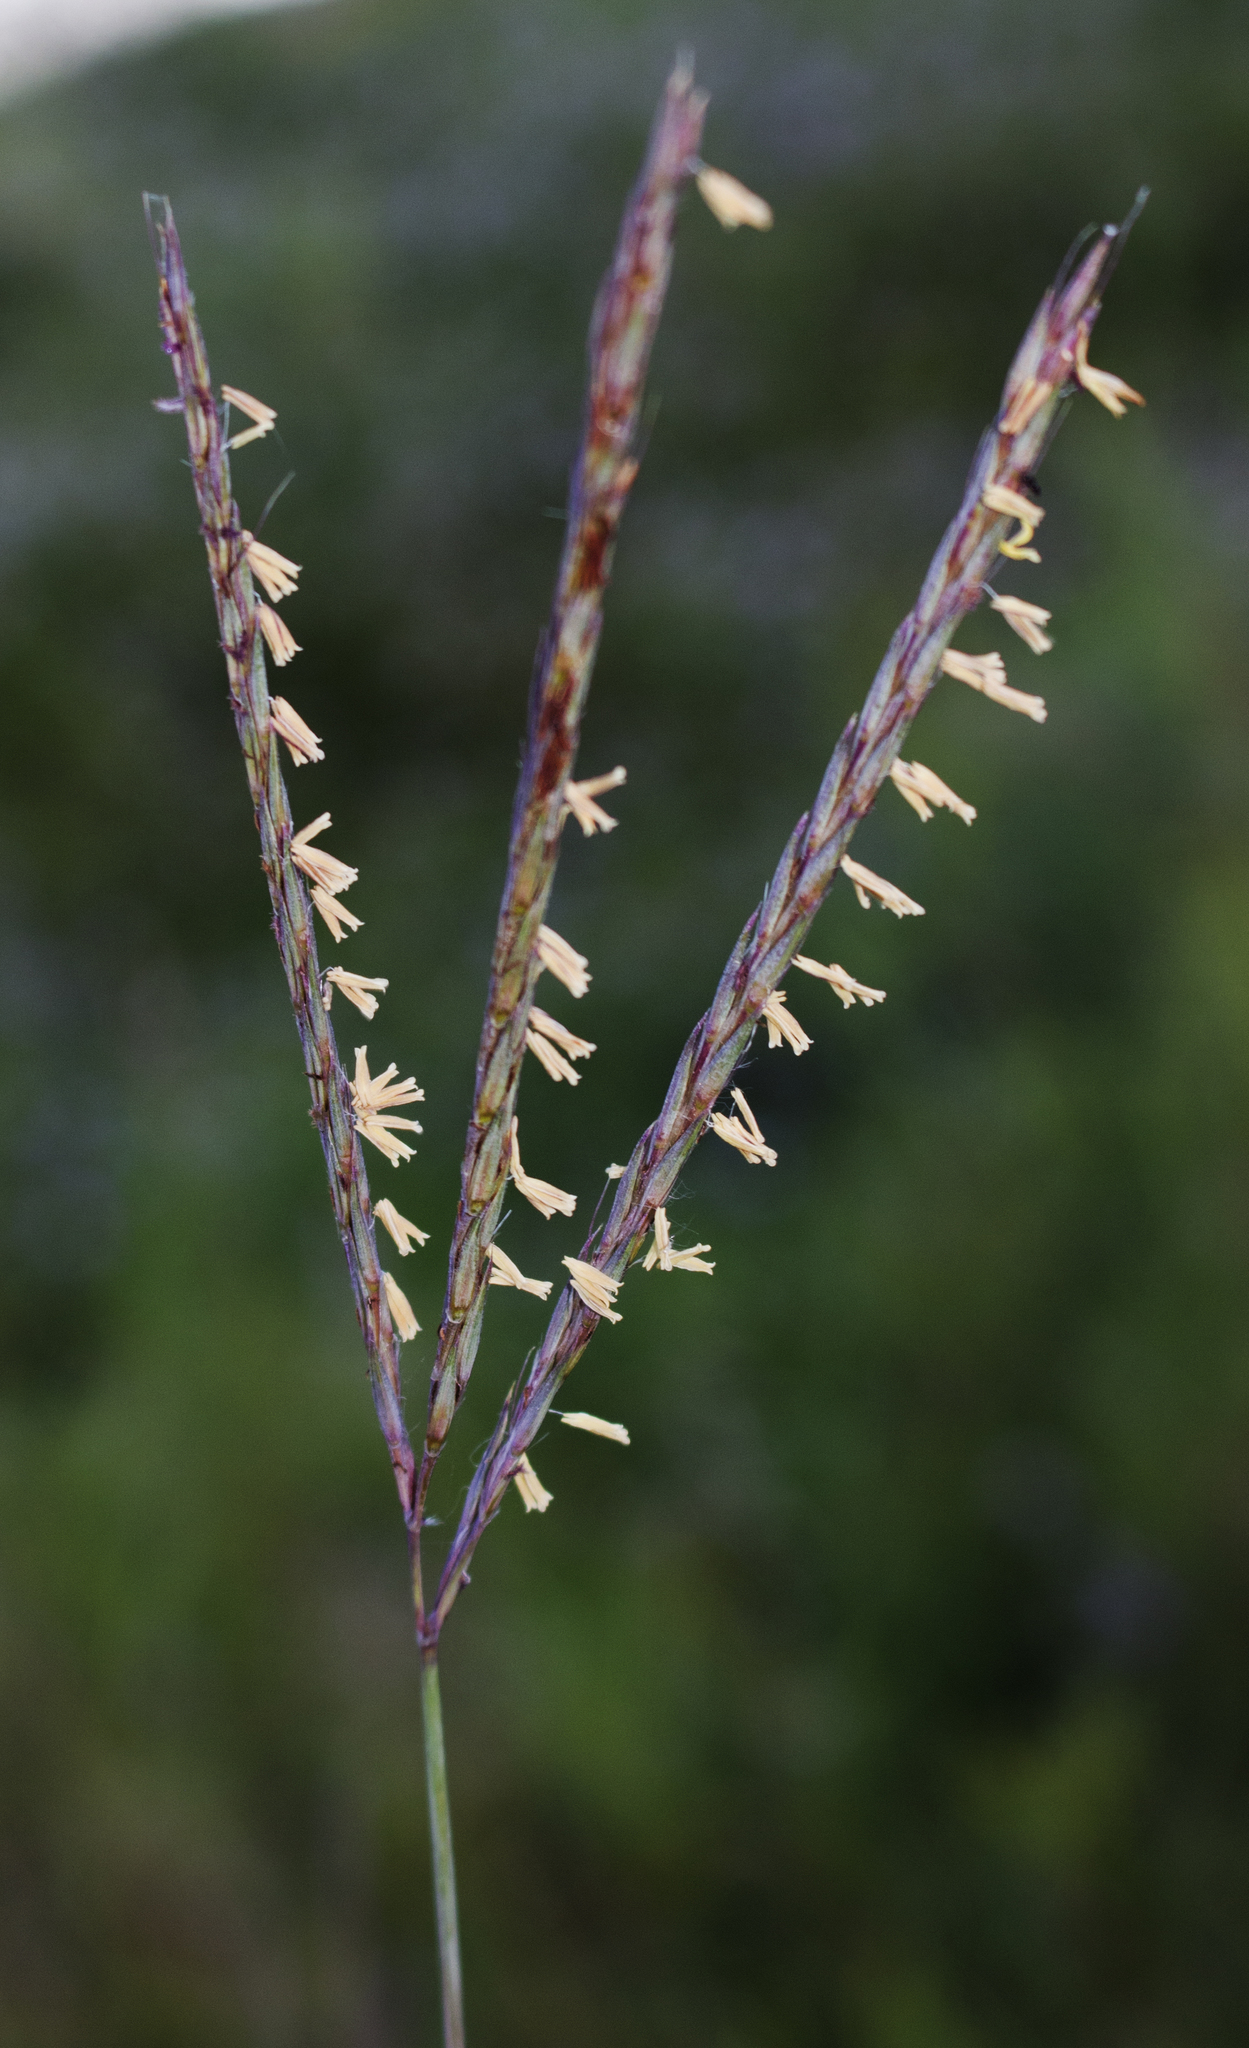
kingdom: Plantae
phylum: Tracheophyta
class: Liliopsida
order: Poales
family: Poaceae
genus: Andropogon
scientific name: Andropogon gerardi
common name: Big bluestem
